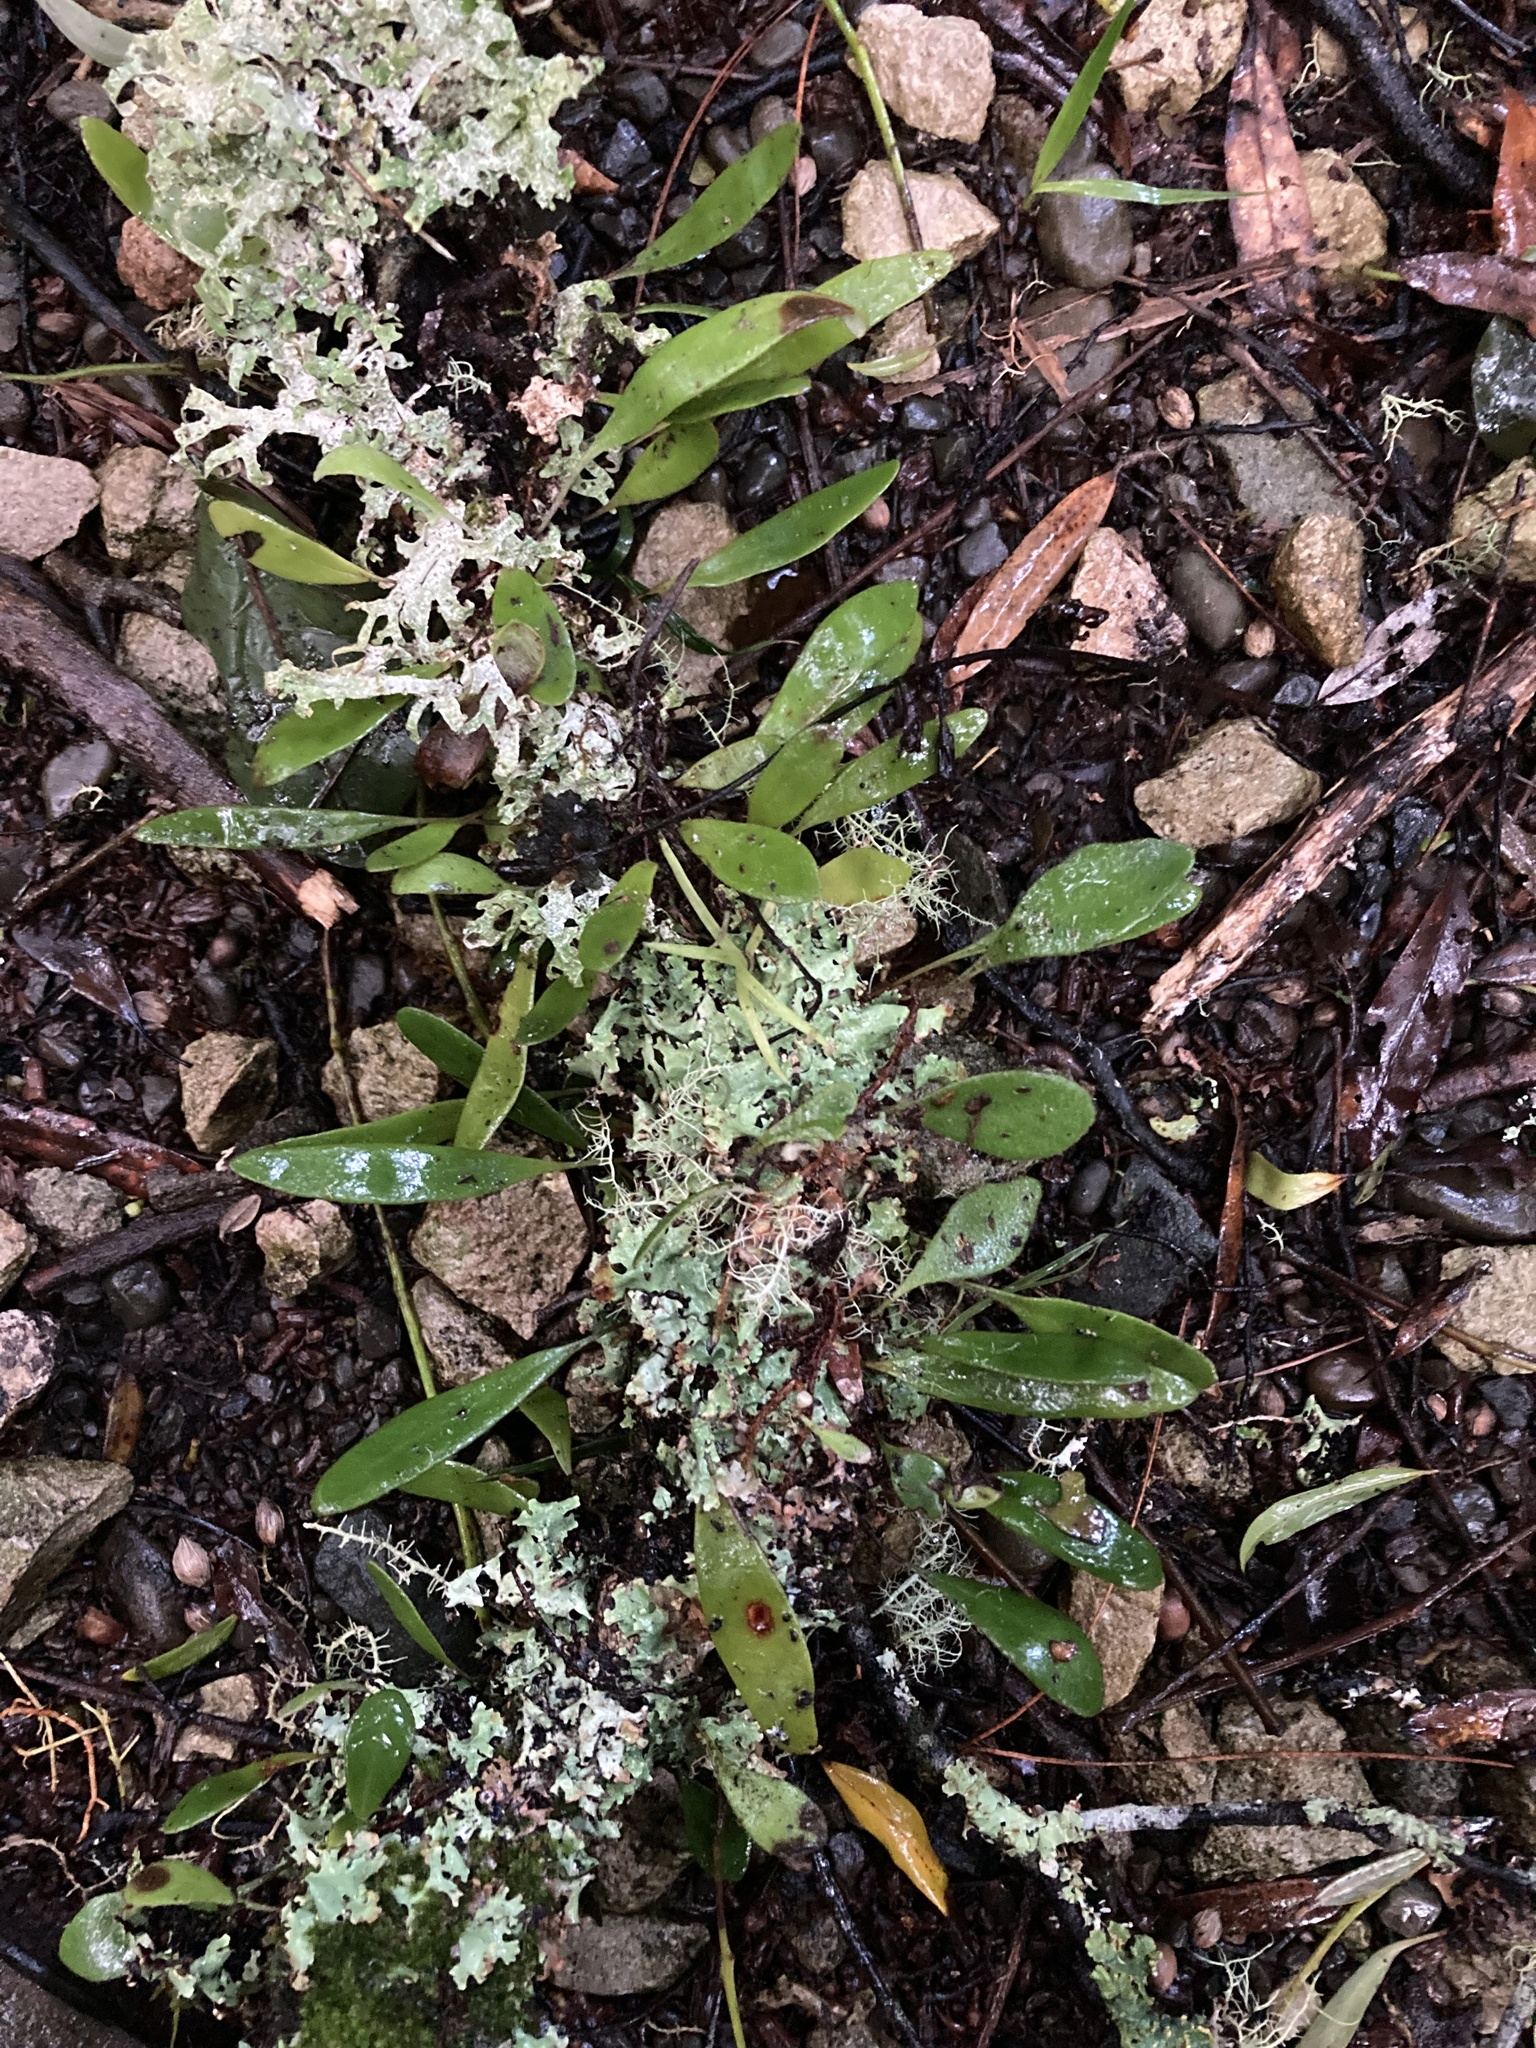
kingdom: Plantae
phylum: Tracheophyta
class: Polypodiopsida
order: Polypodiales
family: Polypodiaceae
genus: Pyrrosia
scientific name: Pyrrosia eleagnifolia
